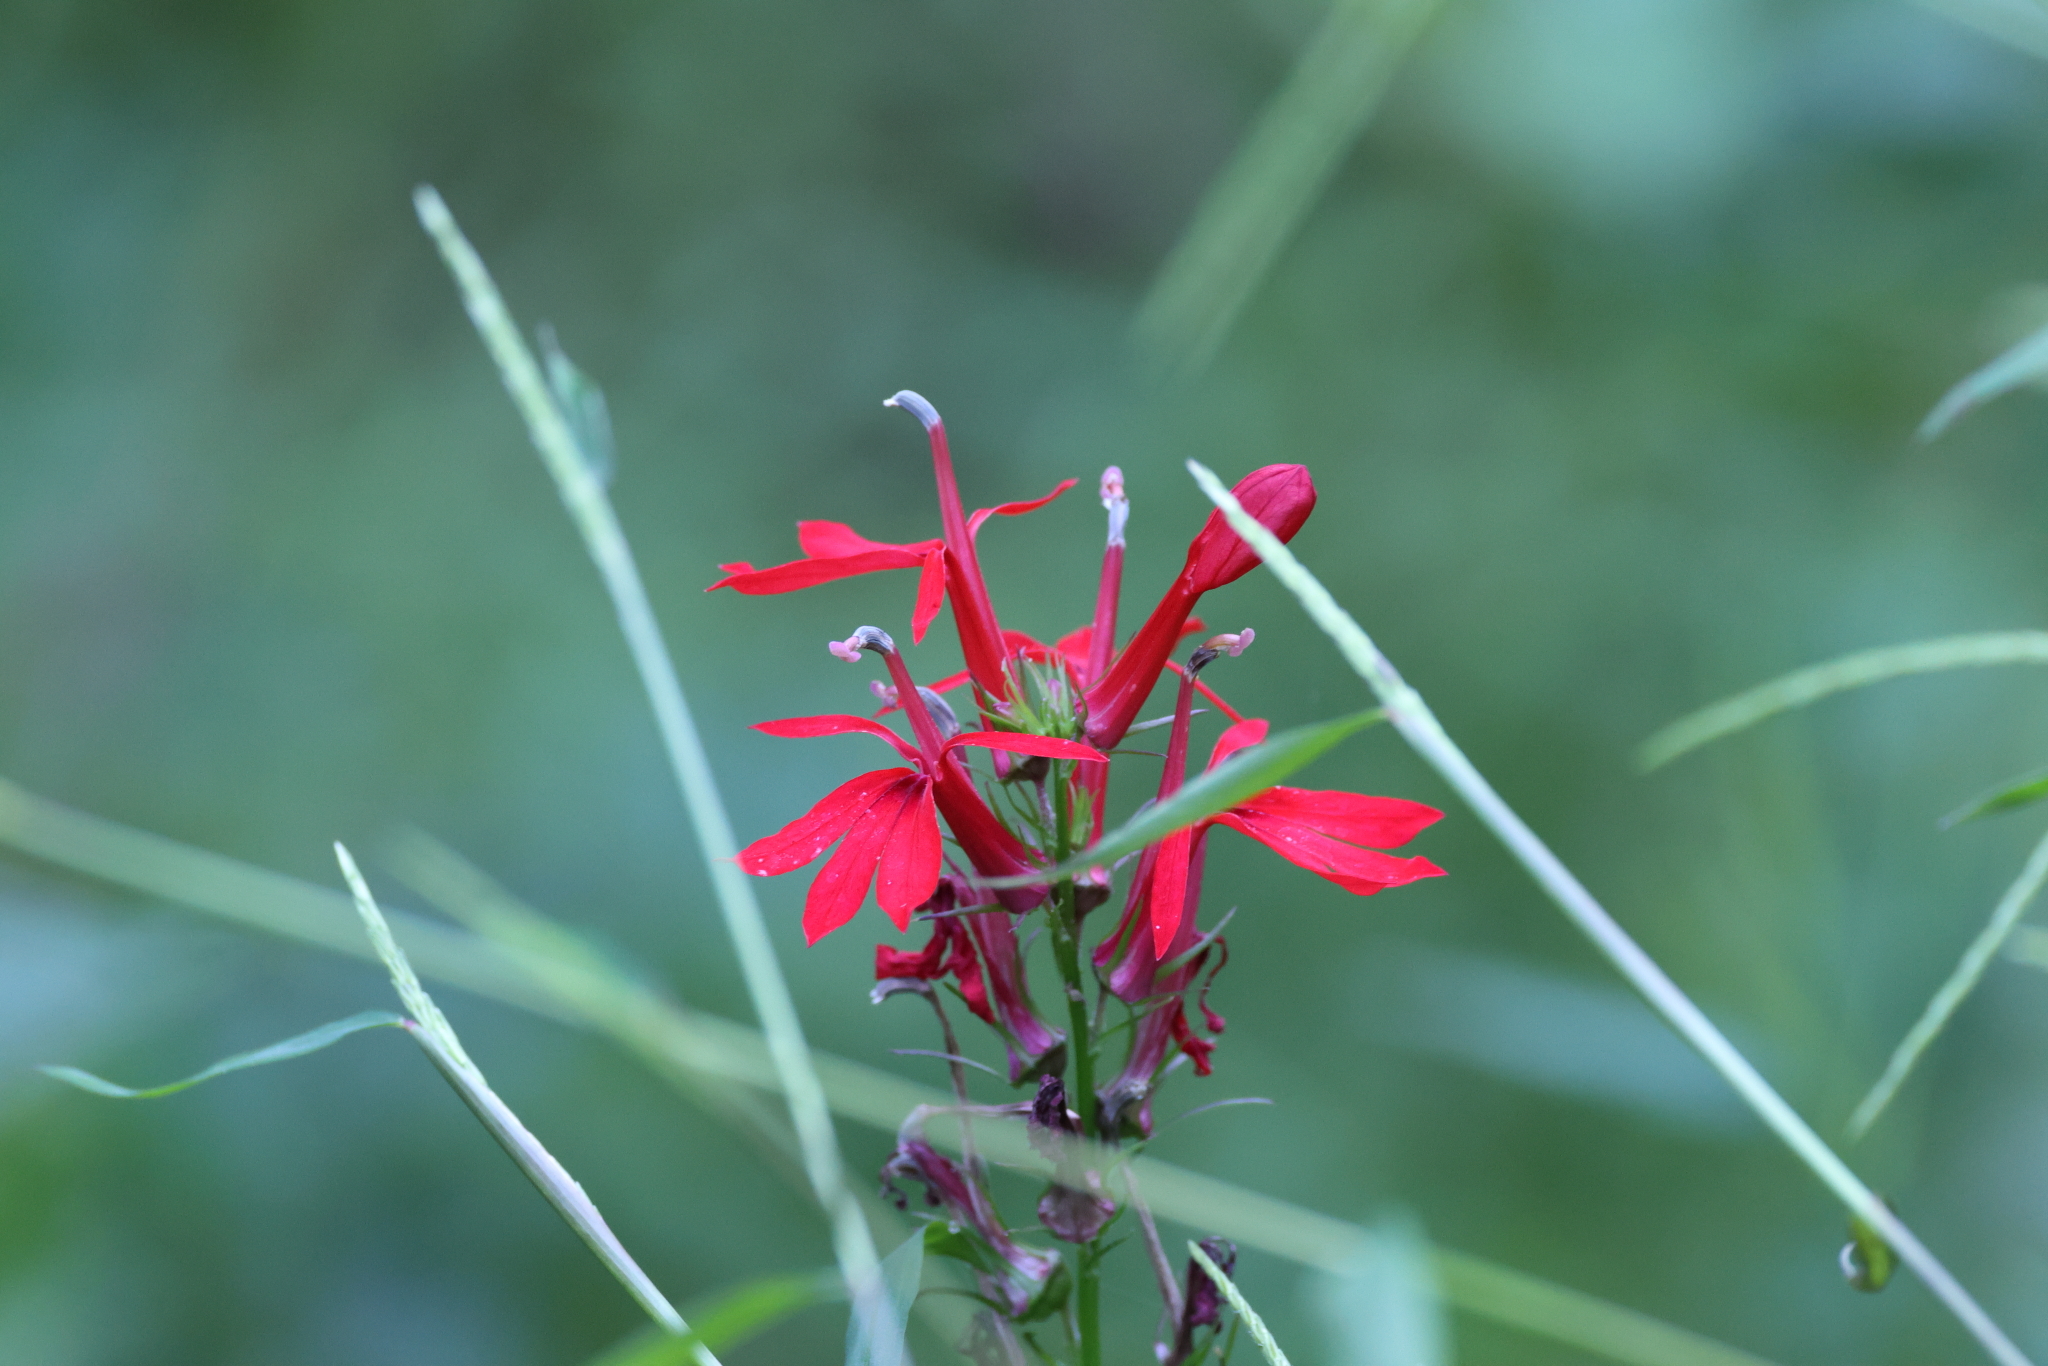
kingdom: Plantae
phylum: Tracheophyta
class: Magnoliopsida
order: Asterales
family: Campanulaceae
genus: Lobelia
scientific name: Lobelia cardinalis
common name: Cardinal flower
